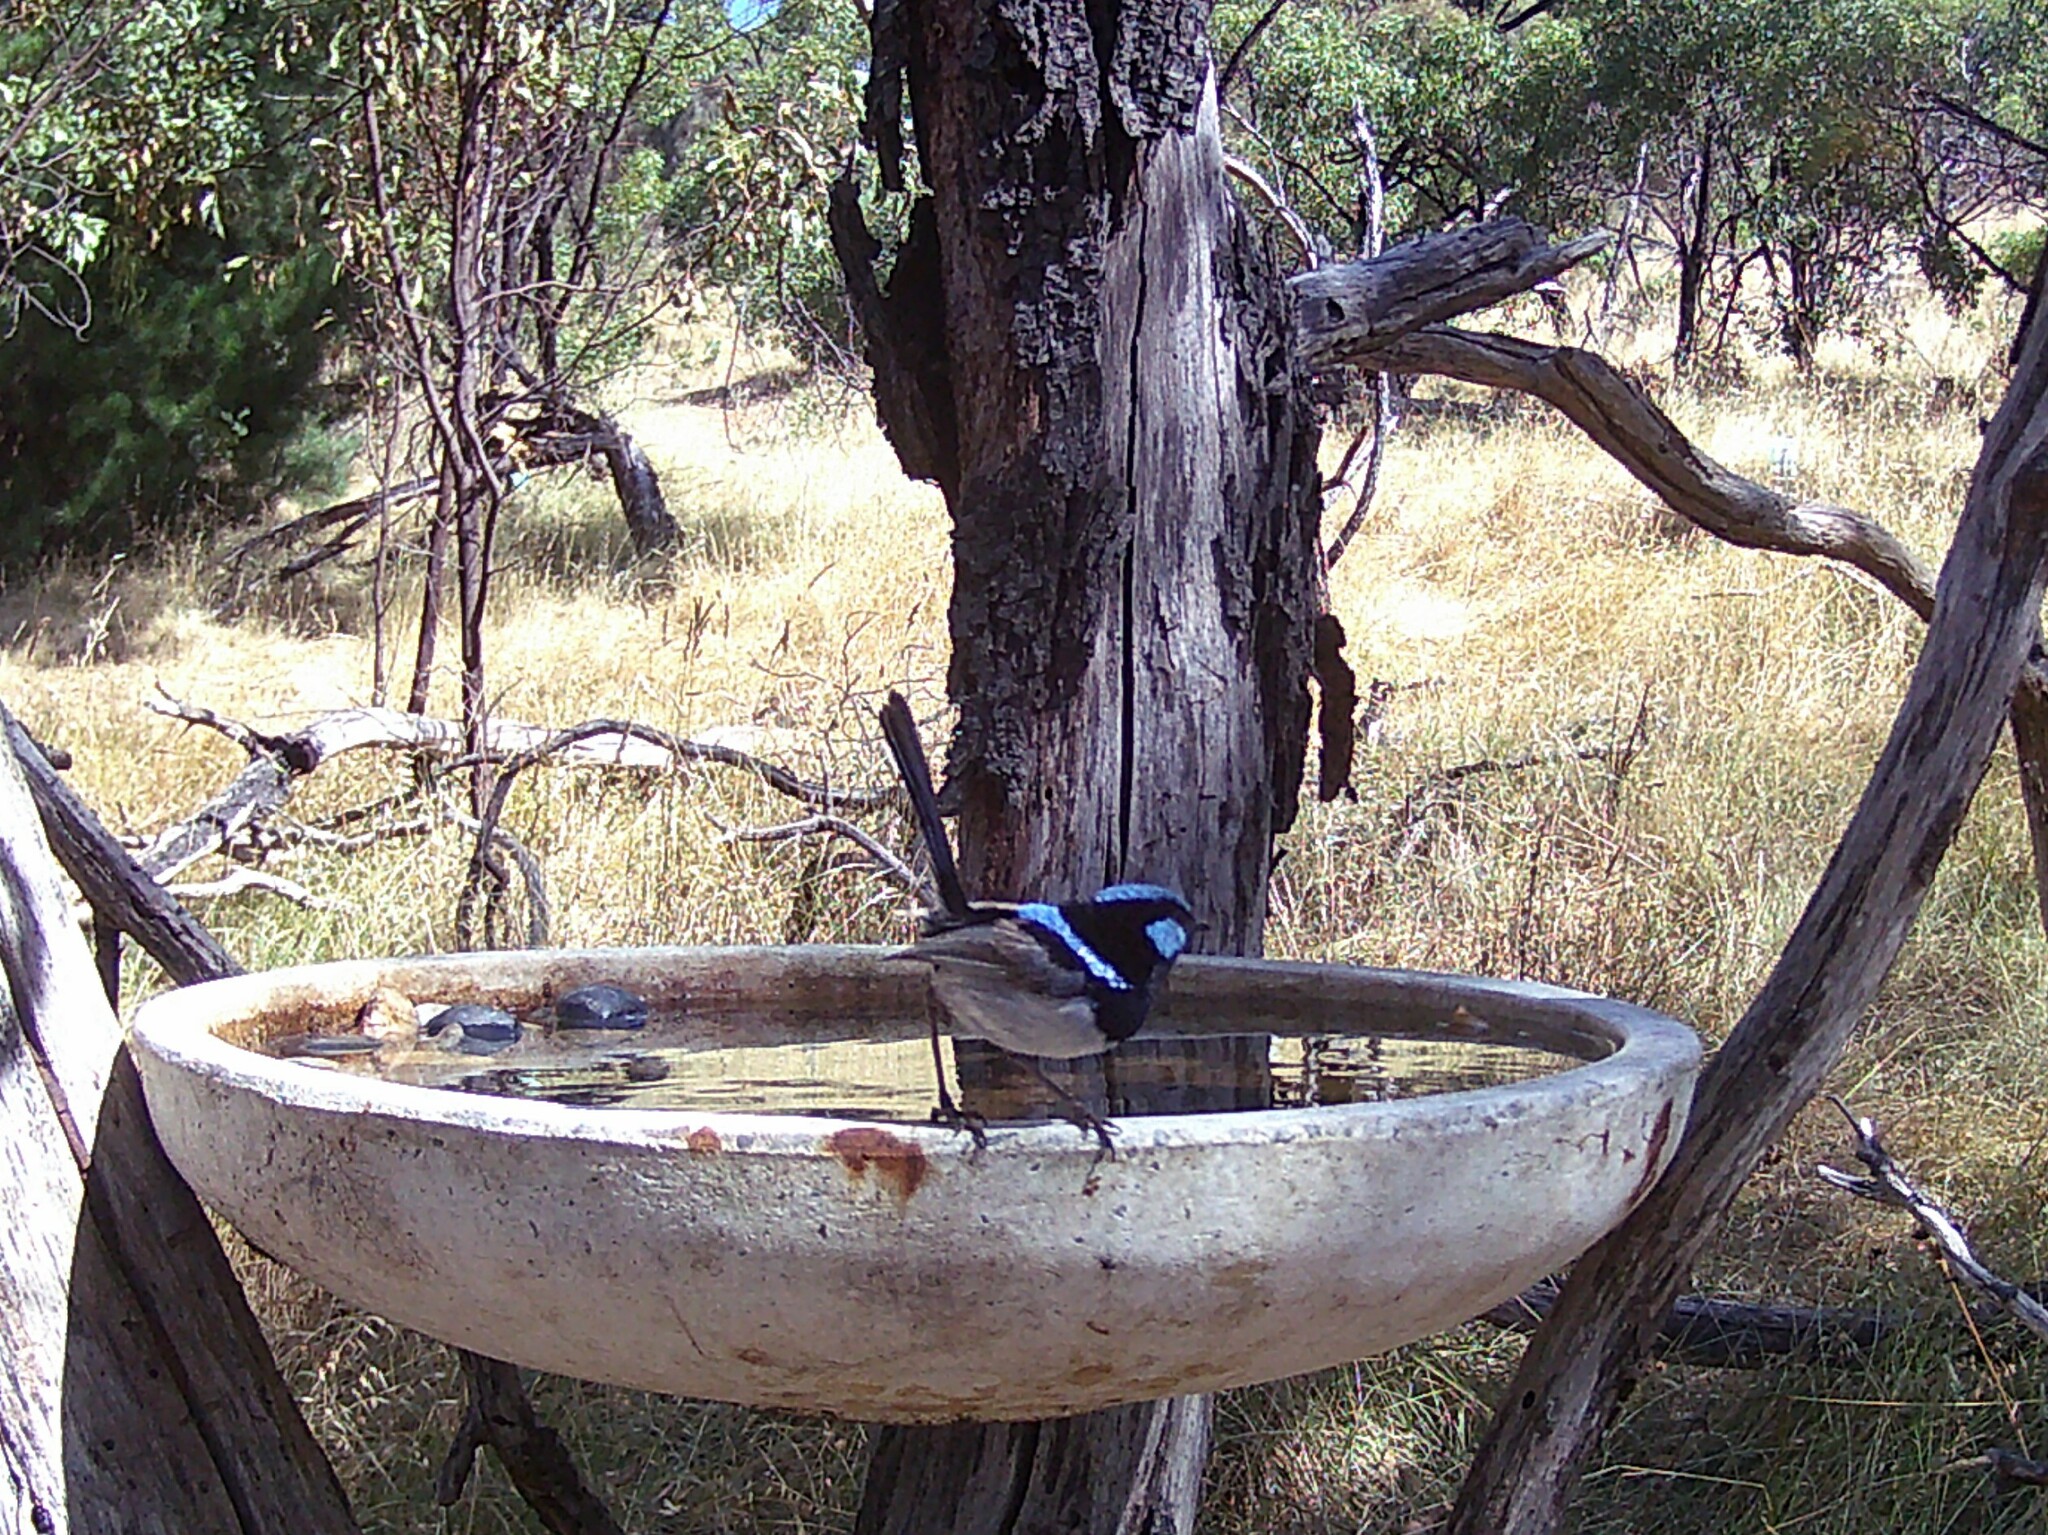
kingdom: Animalia
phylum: Chordata
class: Aves
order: Passeriformes
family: Maluridae
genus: Malurus
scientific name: Malurus cyaneus
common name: Superb fairywren
